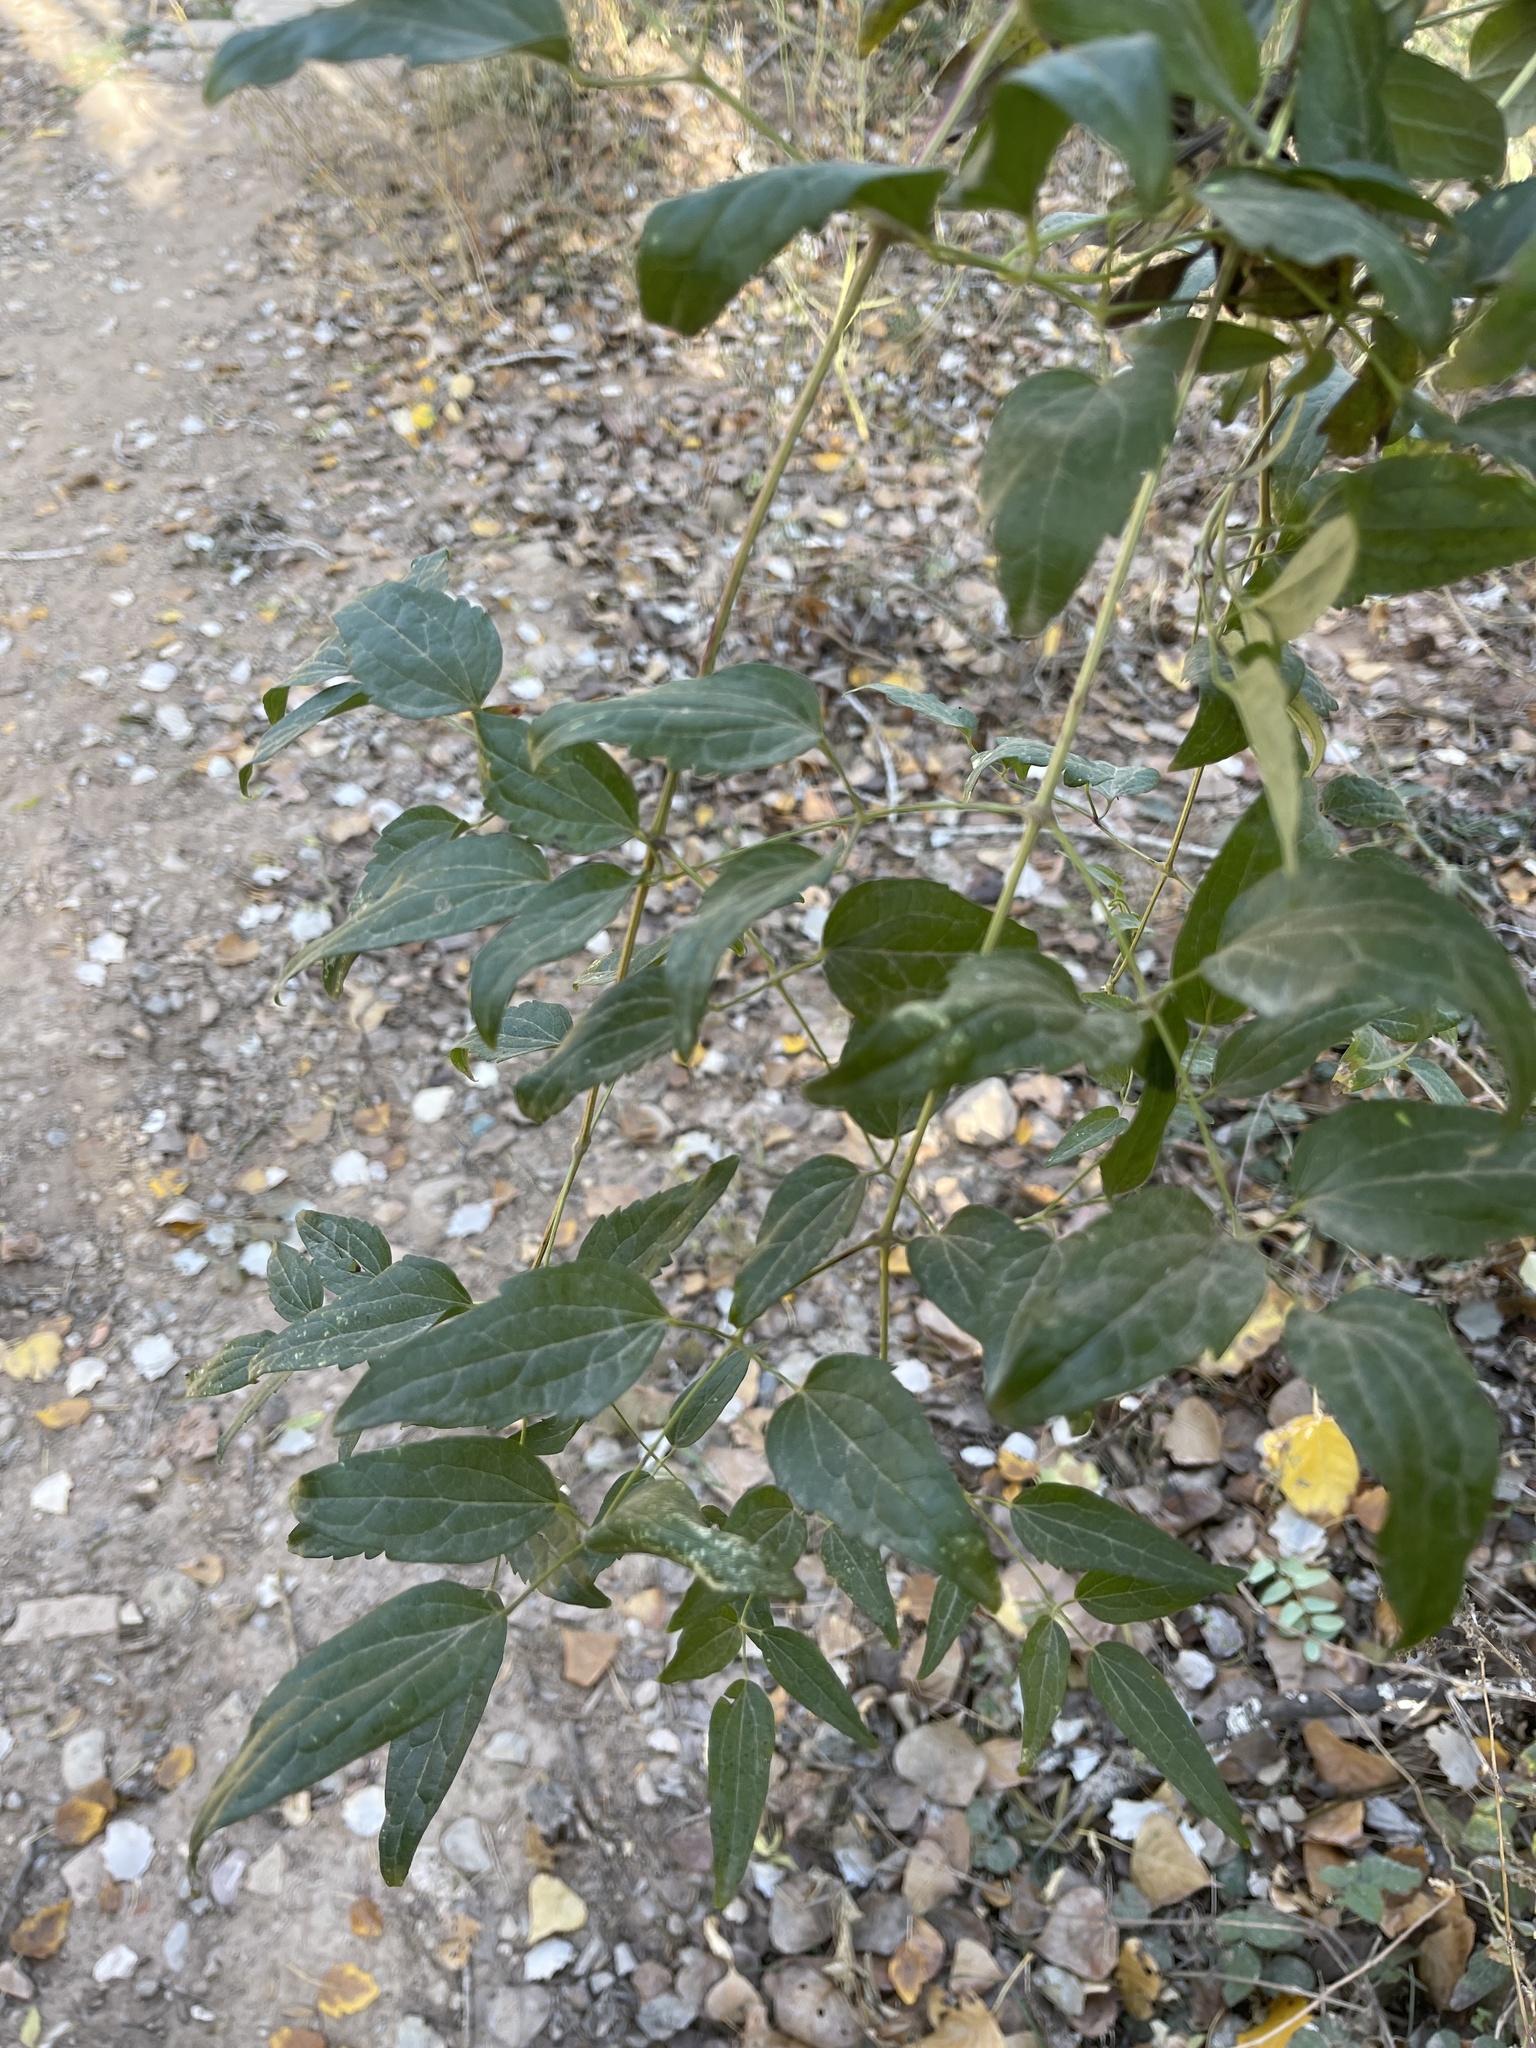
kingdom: Plantae
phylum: Tracheophyta
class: Magnoliopsida
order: Ranunculales
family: Ranunculaceae
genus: Clematis
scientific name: Clematis vitalba
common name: Evergreen clematis
